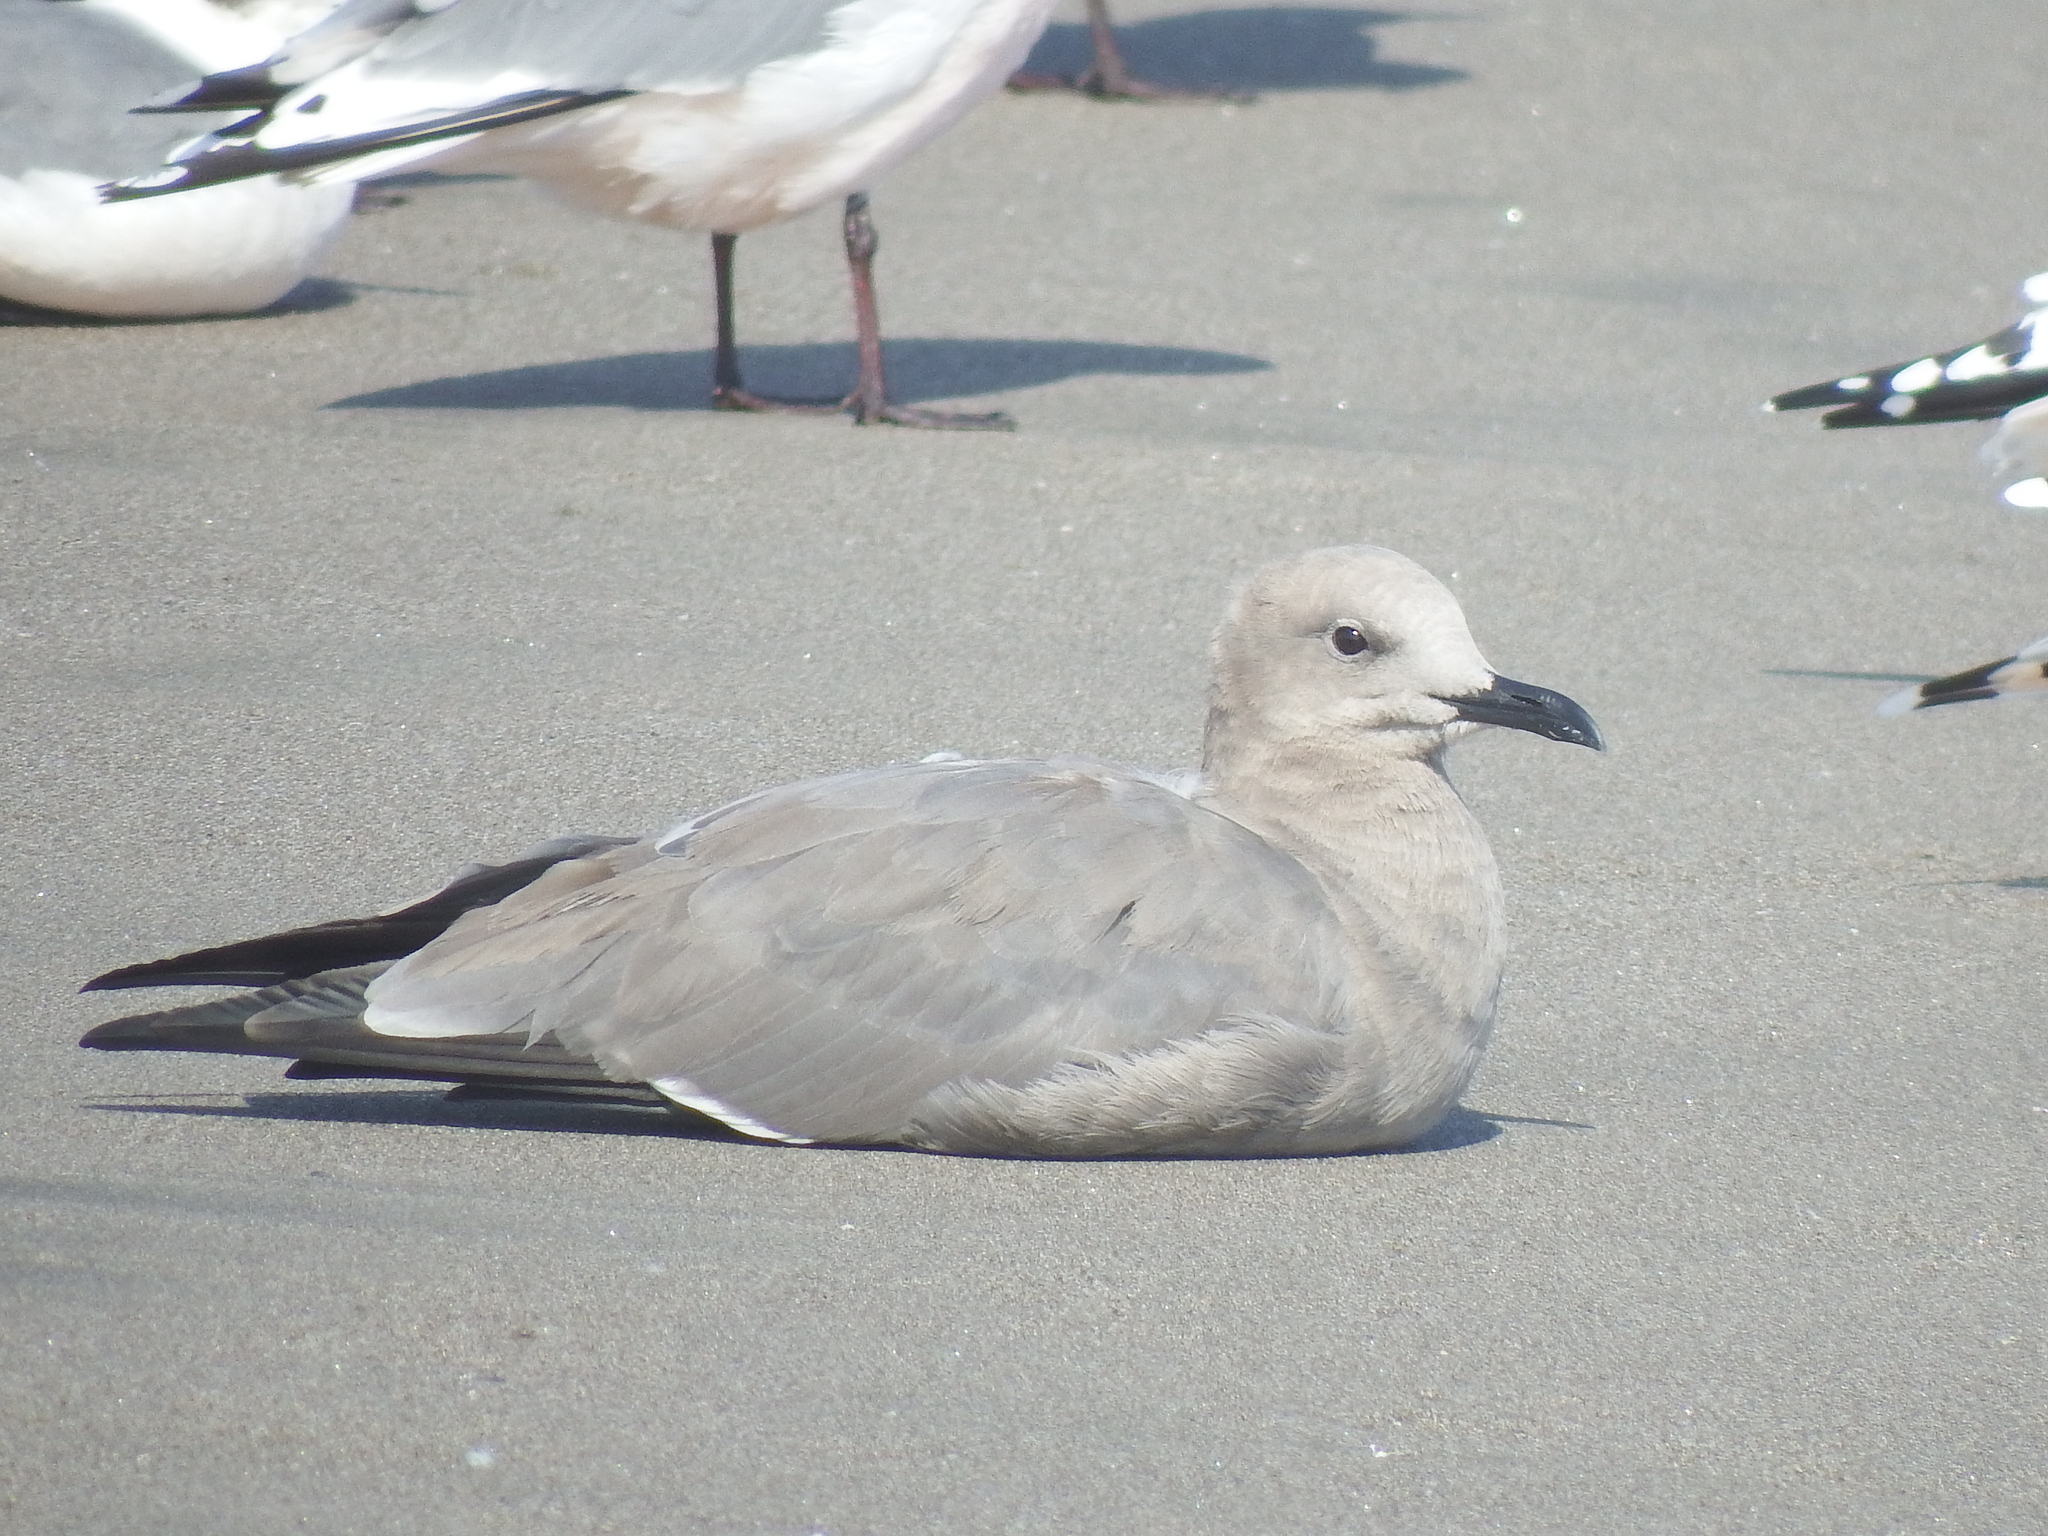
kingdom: Animalia
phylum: Chordata
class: Aves
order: Charadriiformes
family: Laridae
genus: Leucophaeus
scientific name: Leucophaeus modestus
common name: Gray gull
